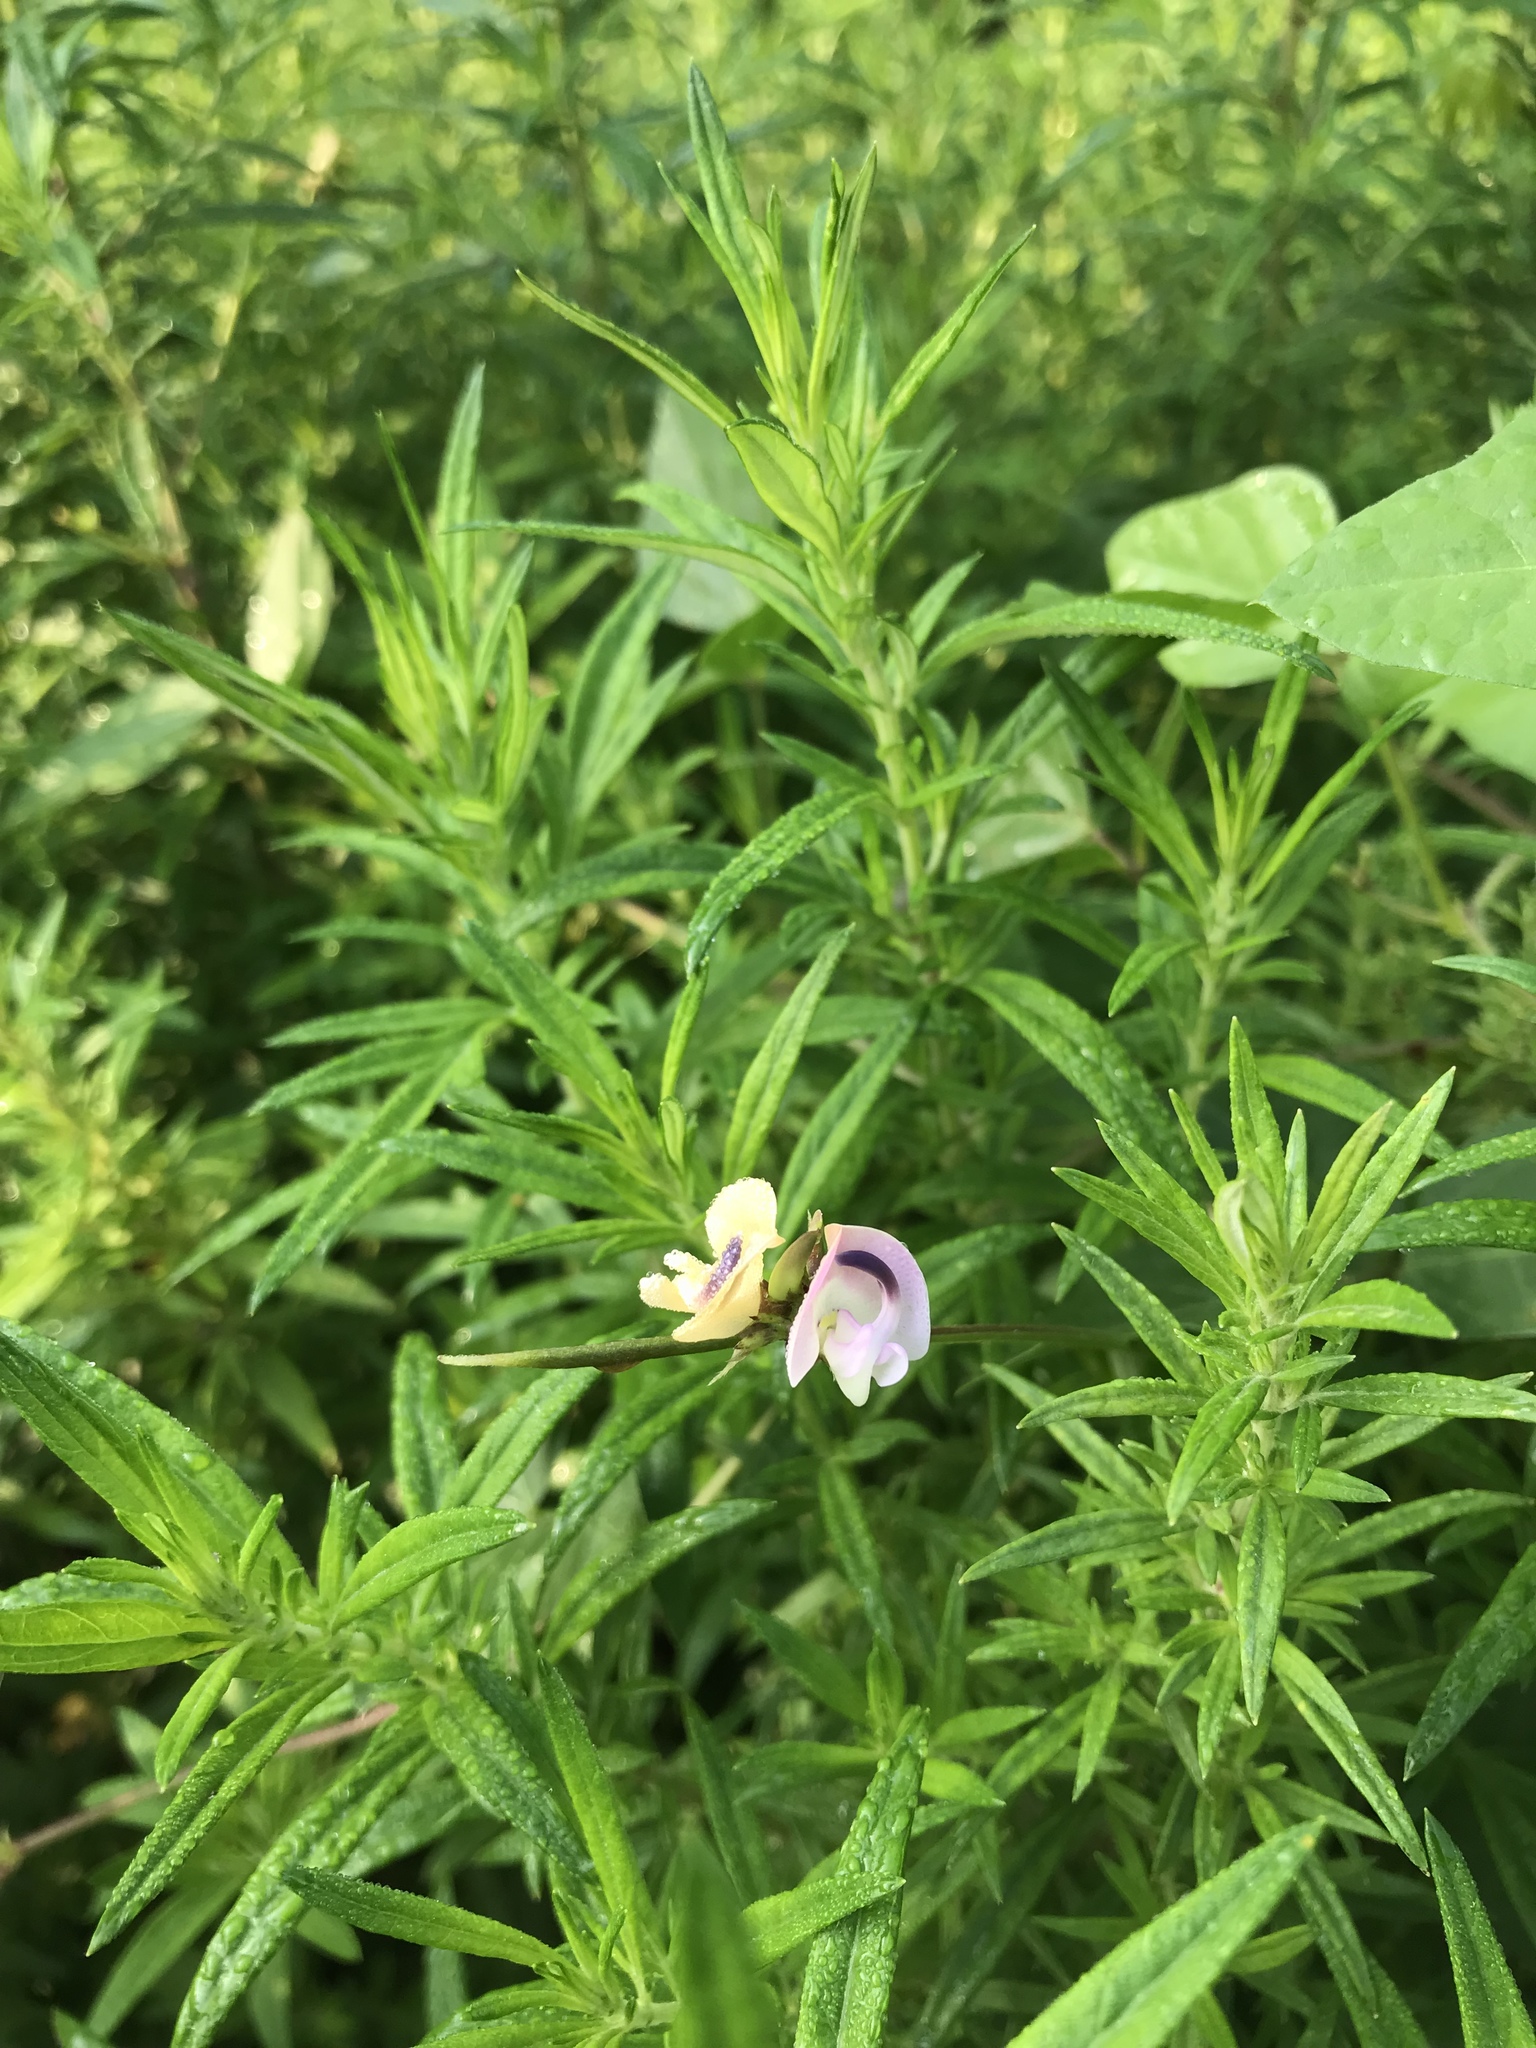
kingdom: Plantae
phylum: Tracheophyta
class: Magnoliopsida
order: Fabales
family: Fabaceae
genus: Strophostyles
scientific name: Strophostyles helvola
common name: Trailing wild bean
